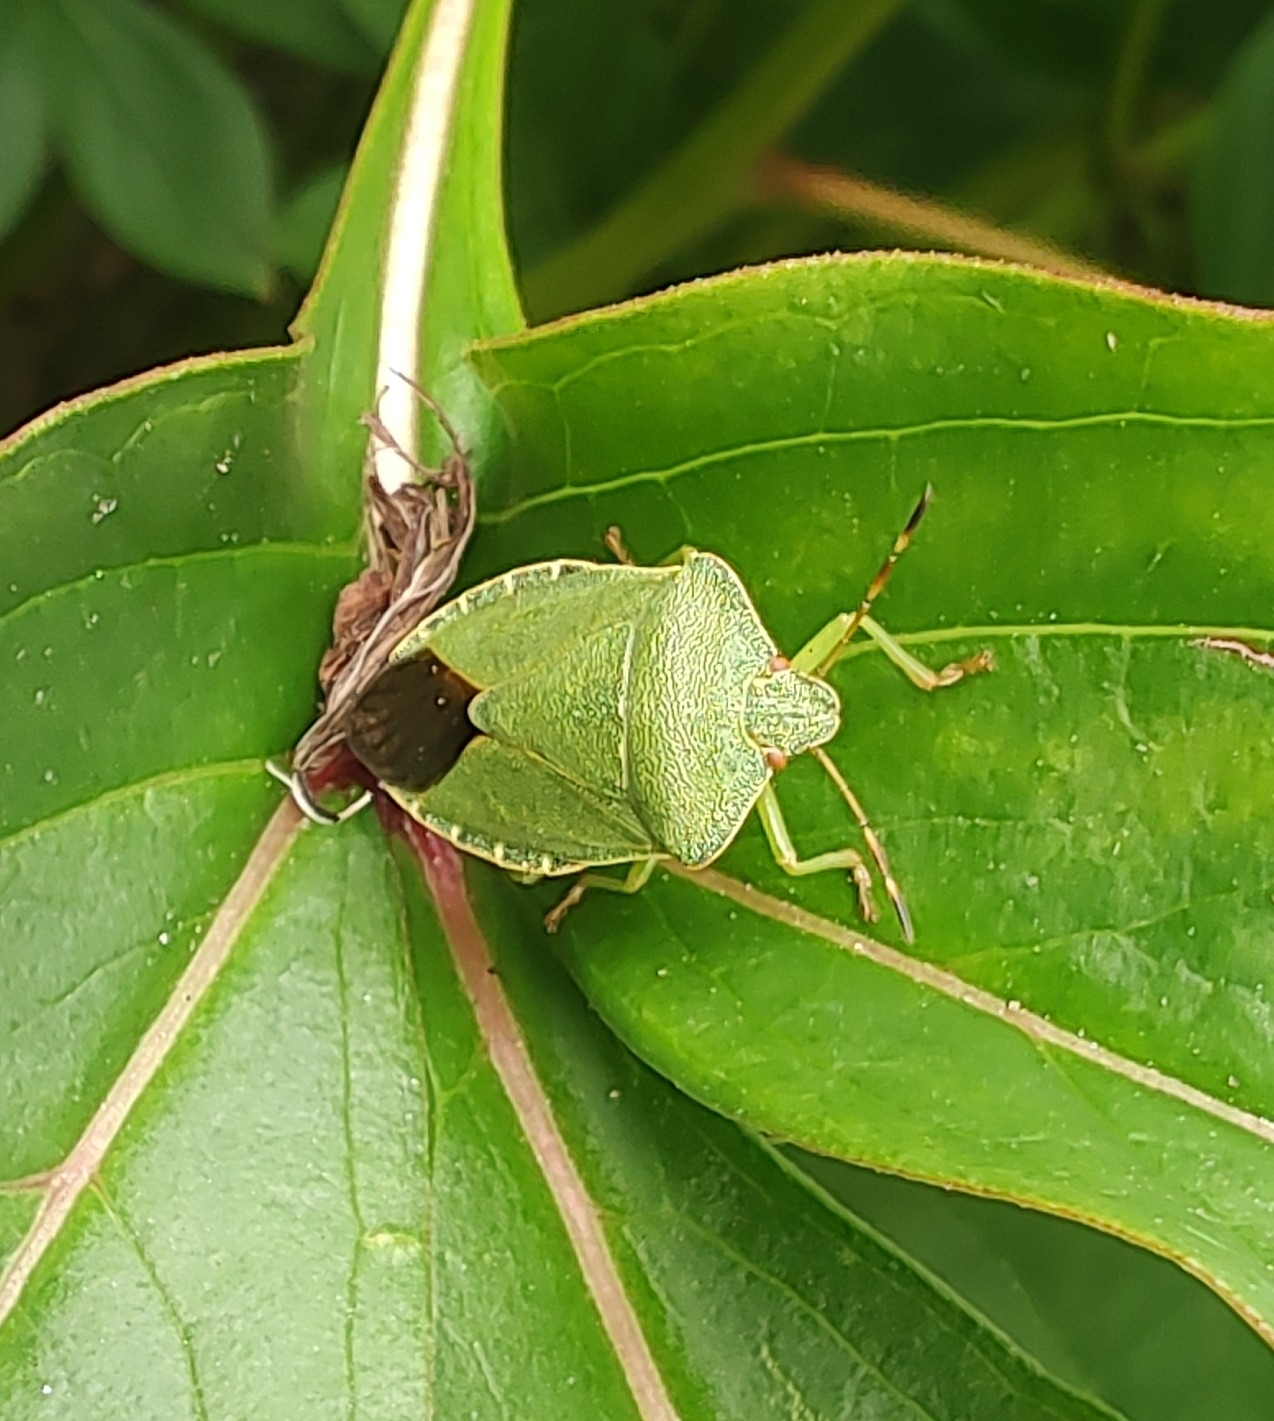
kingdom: Animalia
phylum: Arthropoda
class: Insecta
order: Hemiptera
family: Pentatomidae
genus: Palomena
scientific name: Palomena prasina
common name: Green shieldbug
